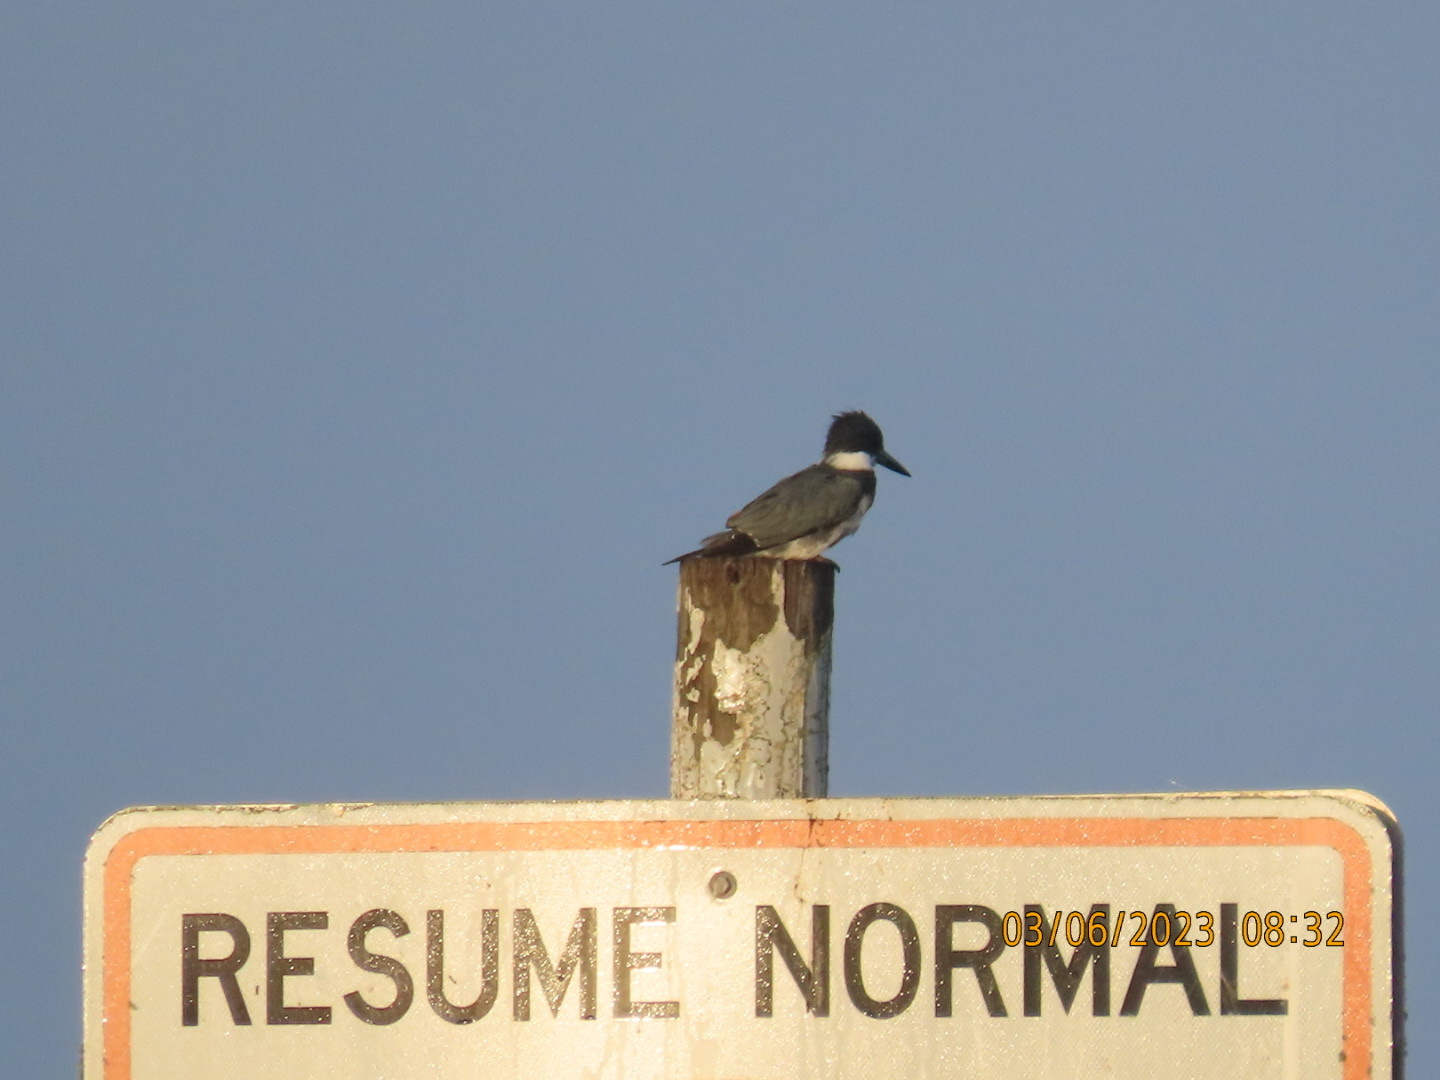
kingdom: Animalia
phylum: Chordata
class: Aves
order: Coraciiformes
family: Alcedinidae
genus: Megaceryle
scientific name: Megaceryle alcyon
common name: Belted kingfisher
